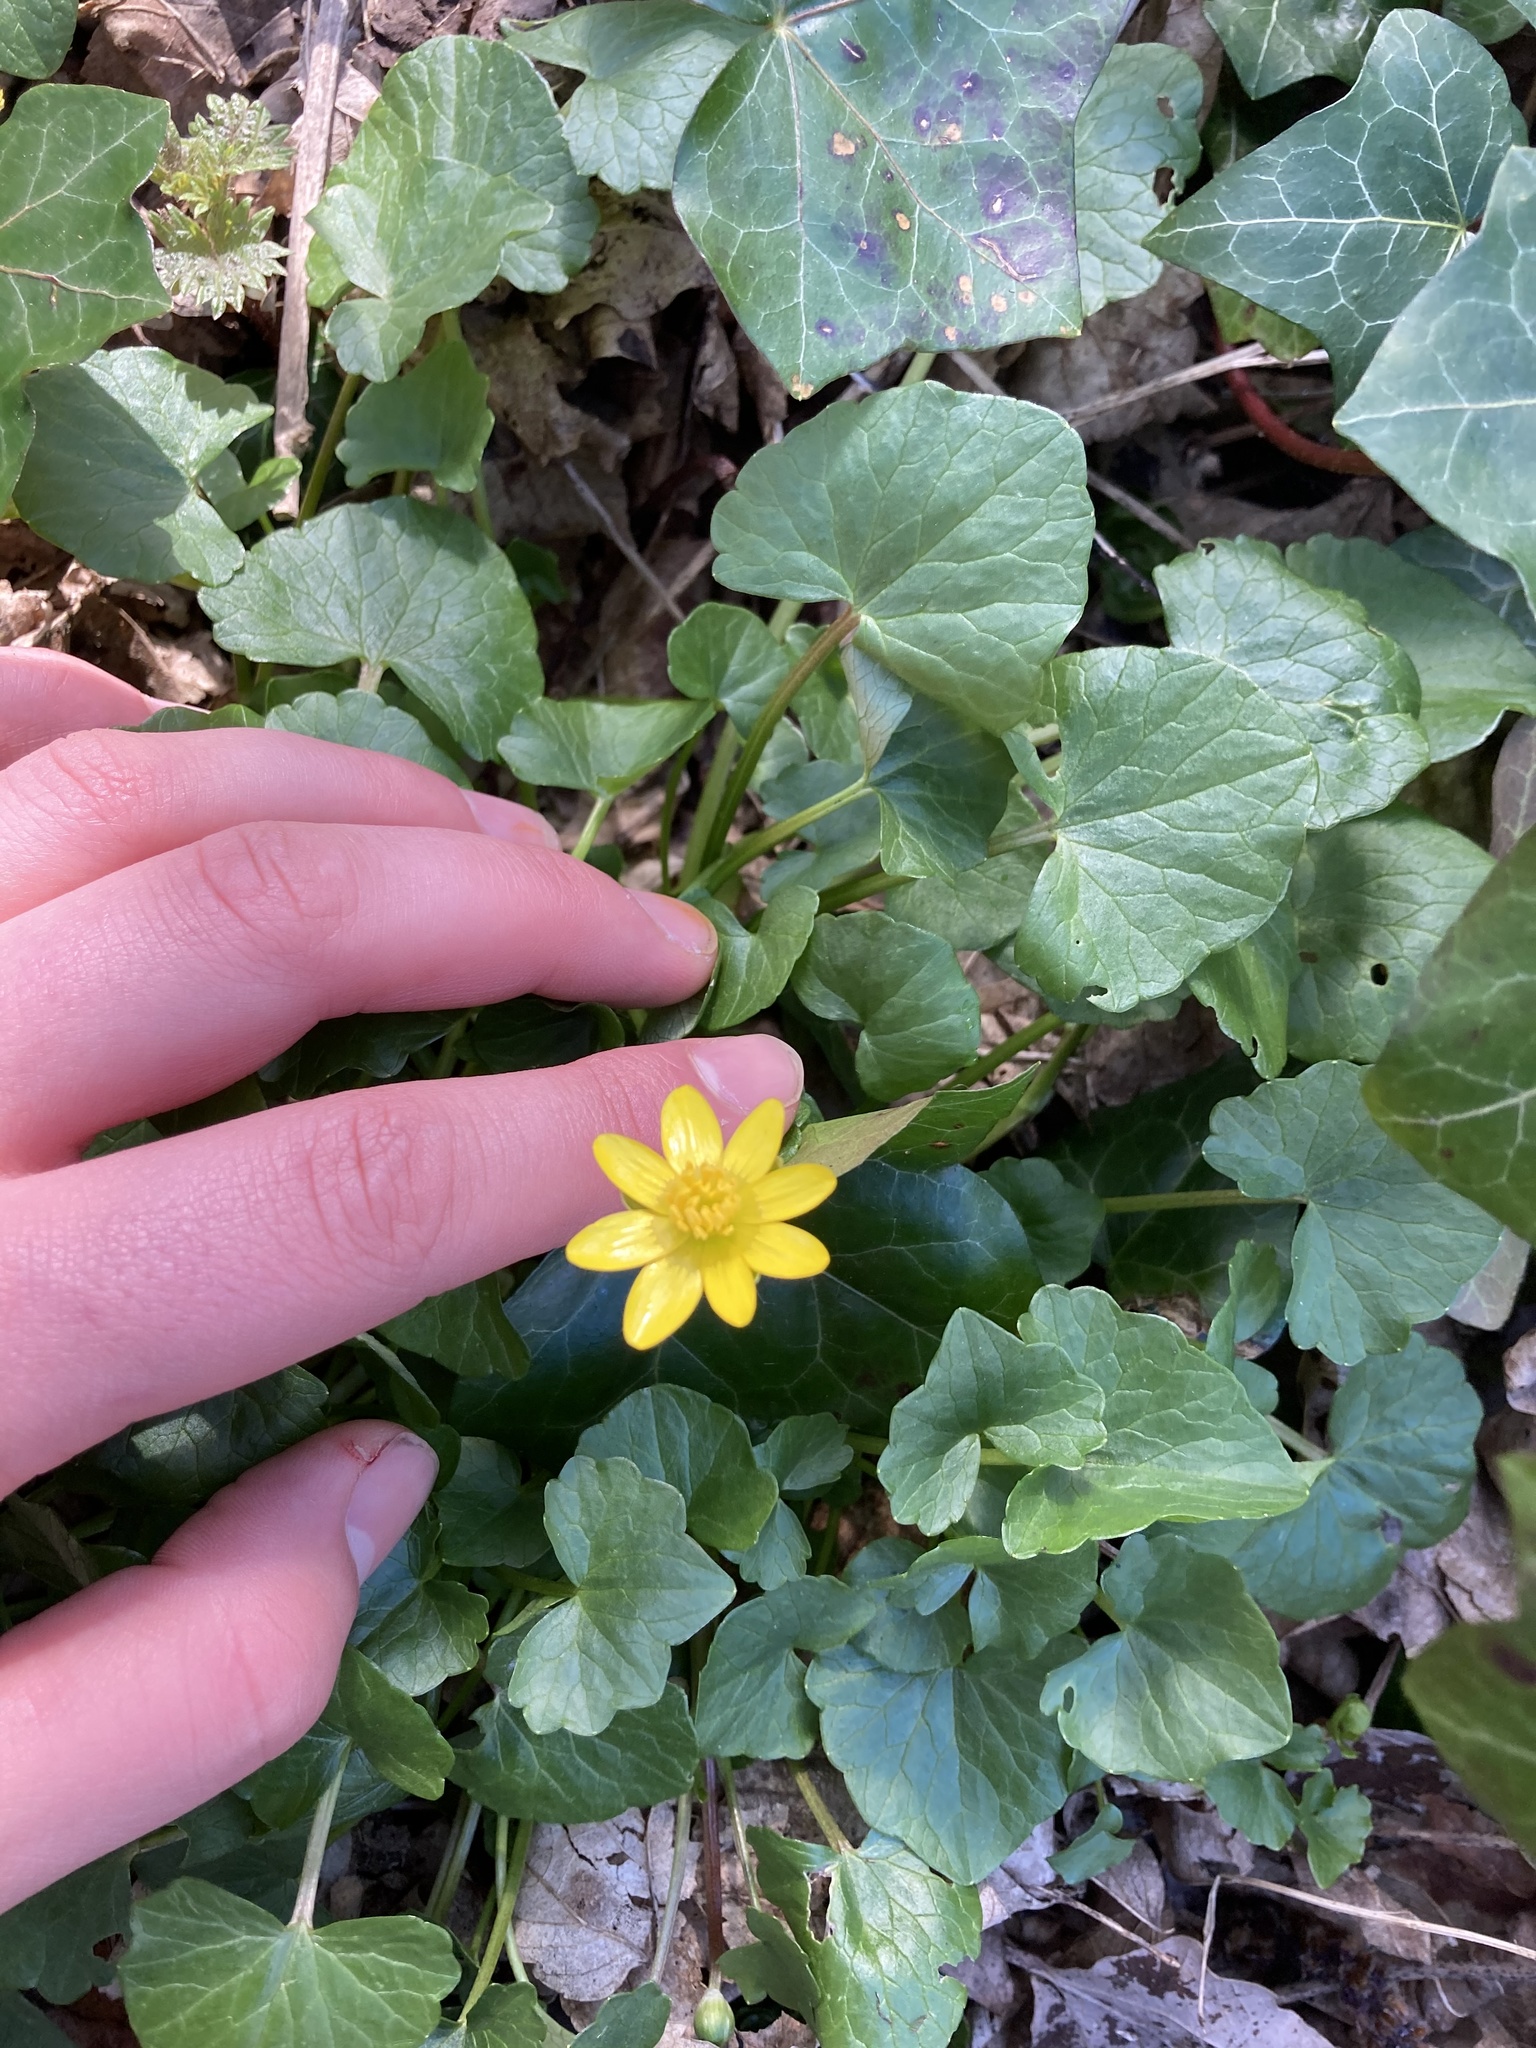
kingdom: Plantae
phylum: Tracheophyta
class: Magnoliopsida
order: Ranunculales
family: Ranunculaceae
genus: Ficaria
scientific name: Ficaria verna
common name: Lesser celandine
